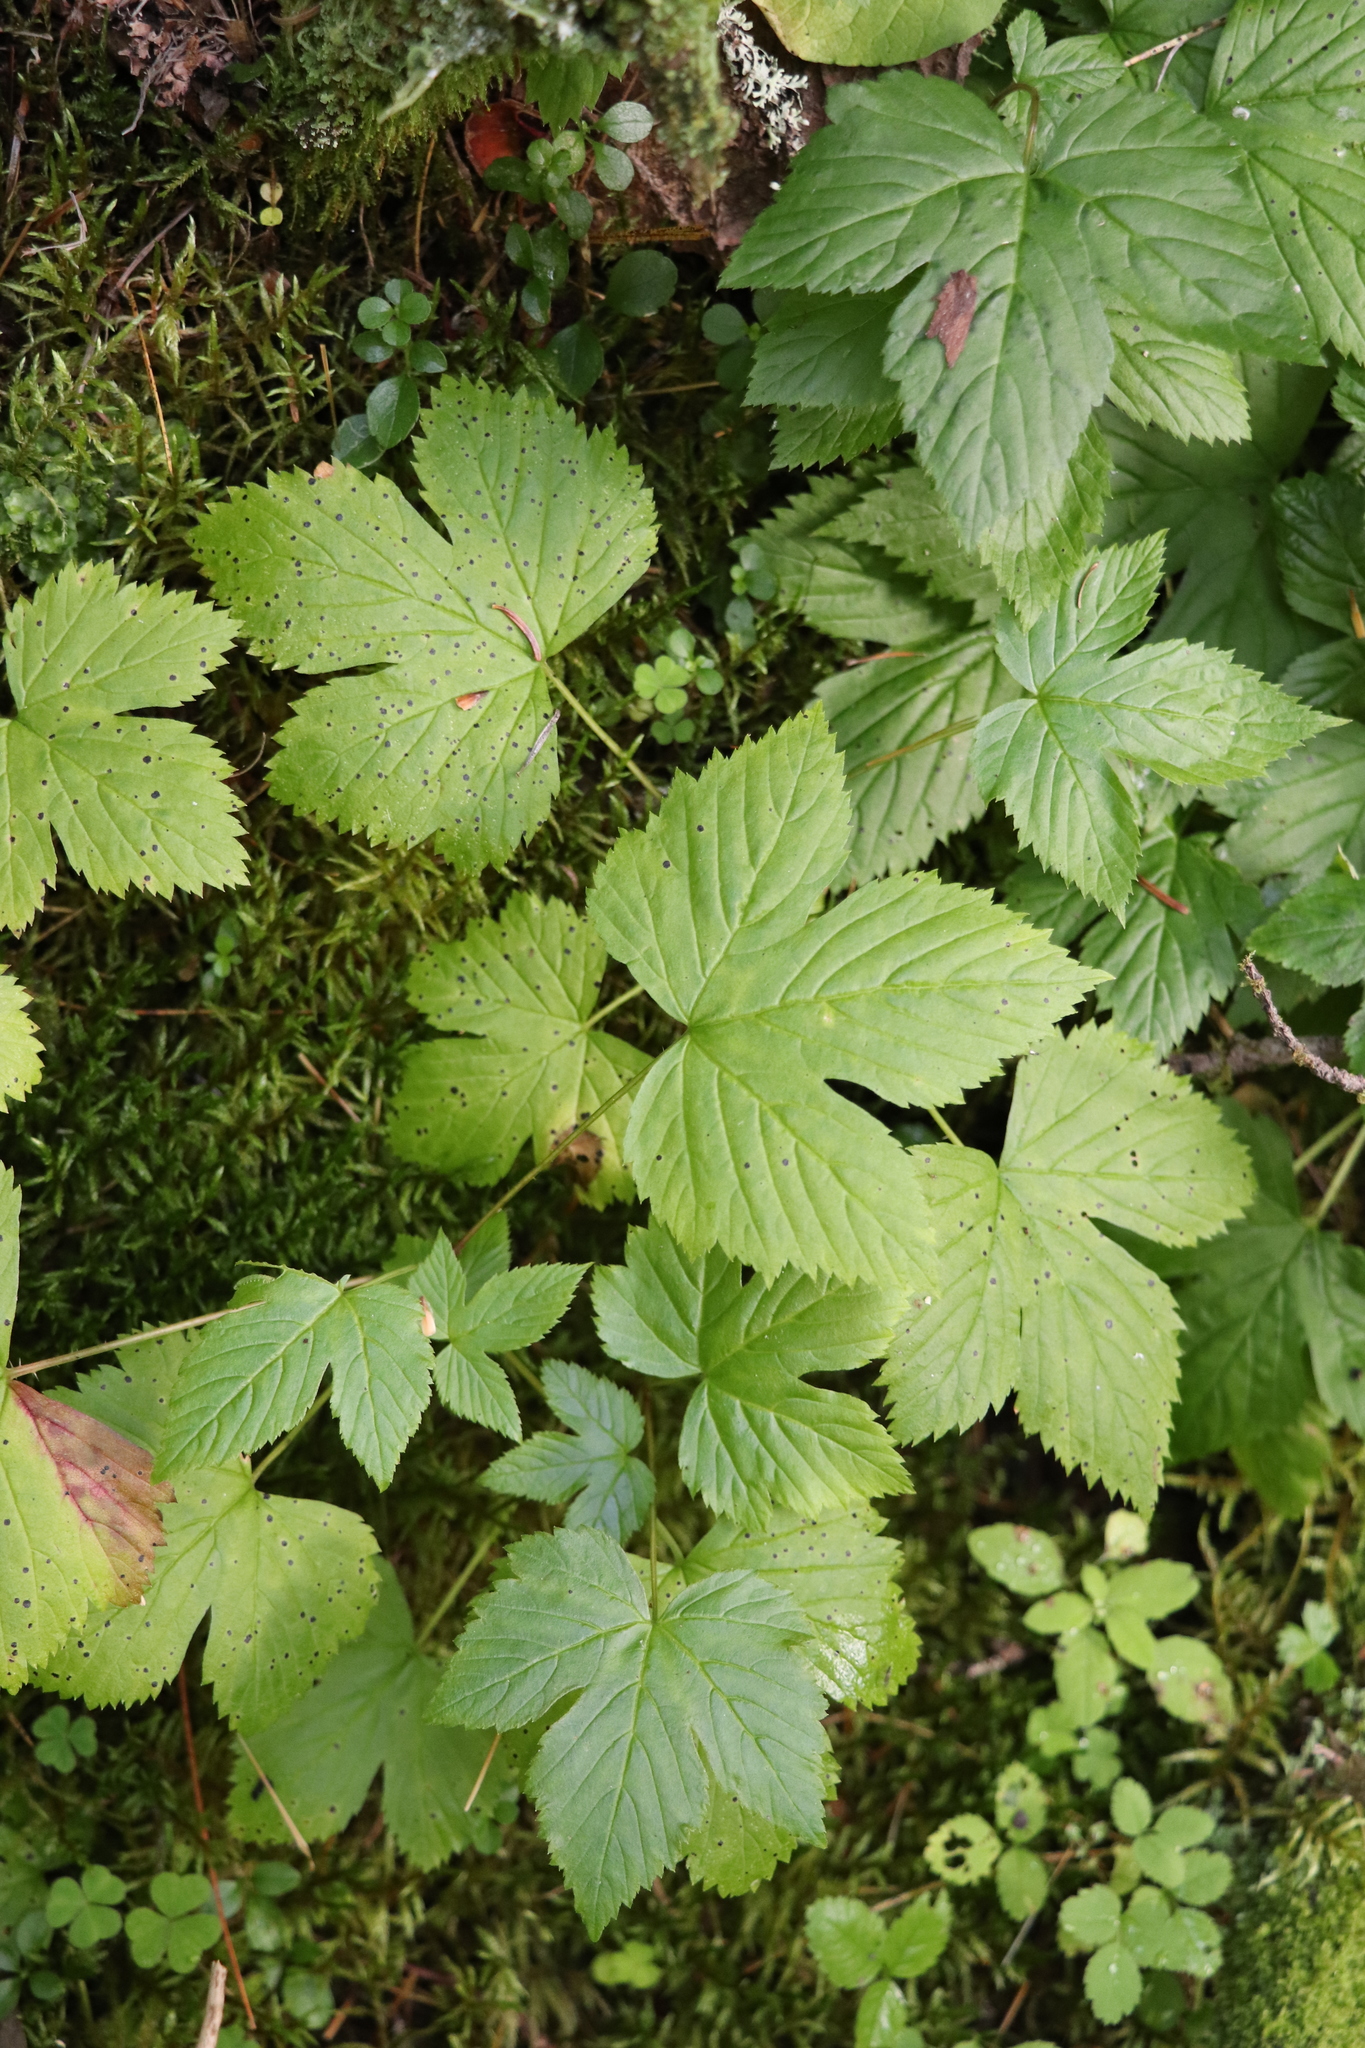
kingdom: Plantae
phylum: Tracheophyta
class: Magnoliopsida
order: Rosales
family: Rosaceae
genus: Rubus
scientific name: Rubus humulifolius
